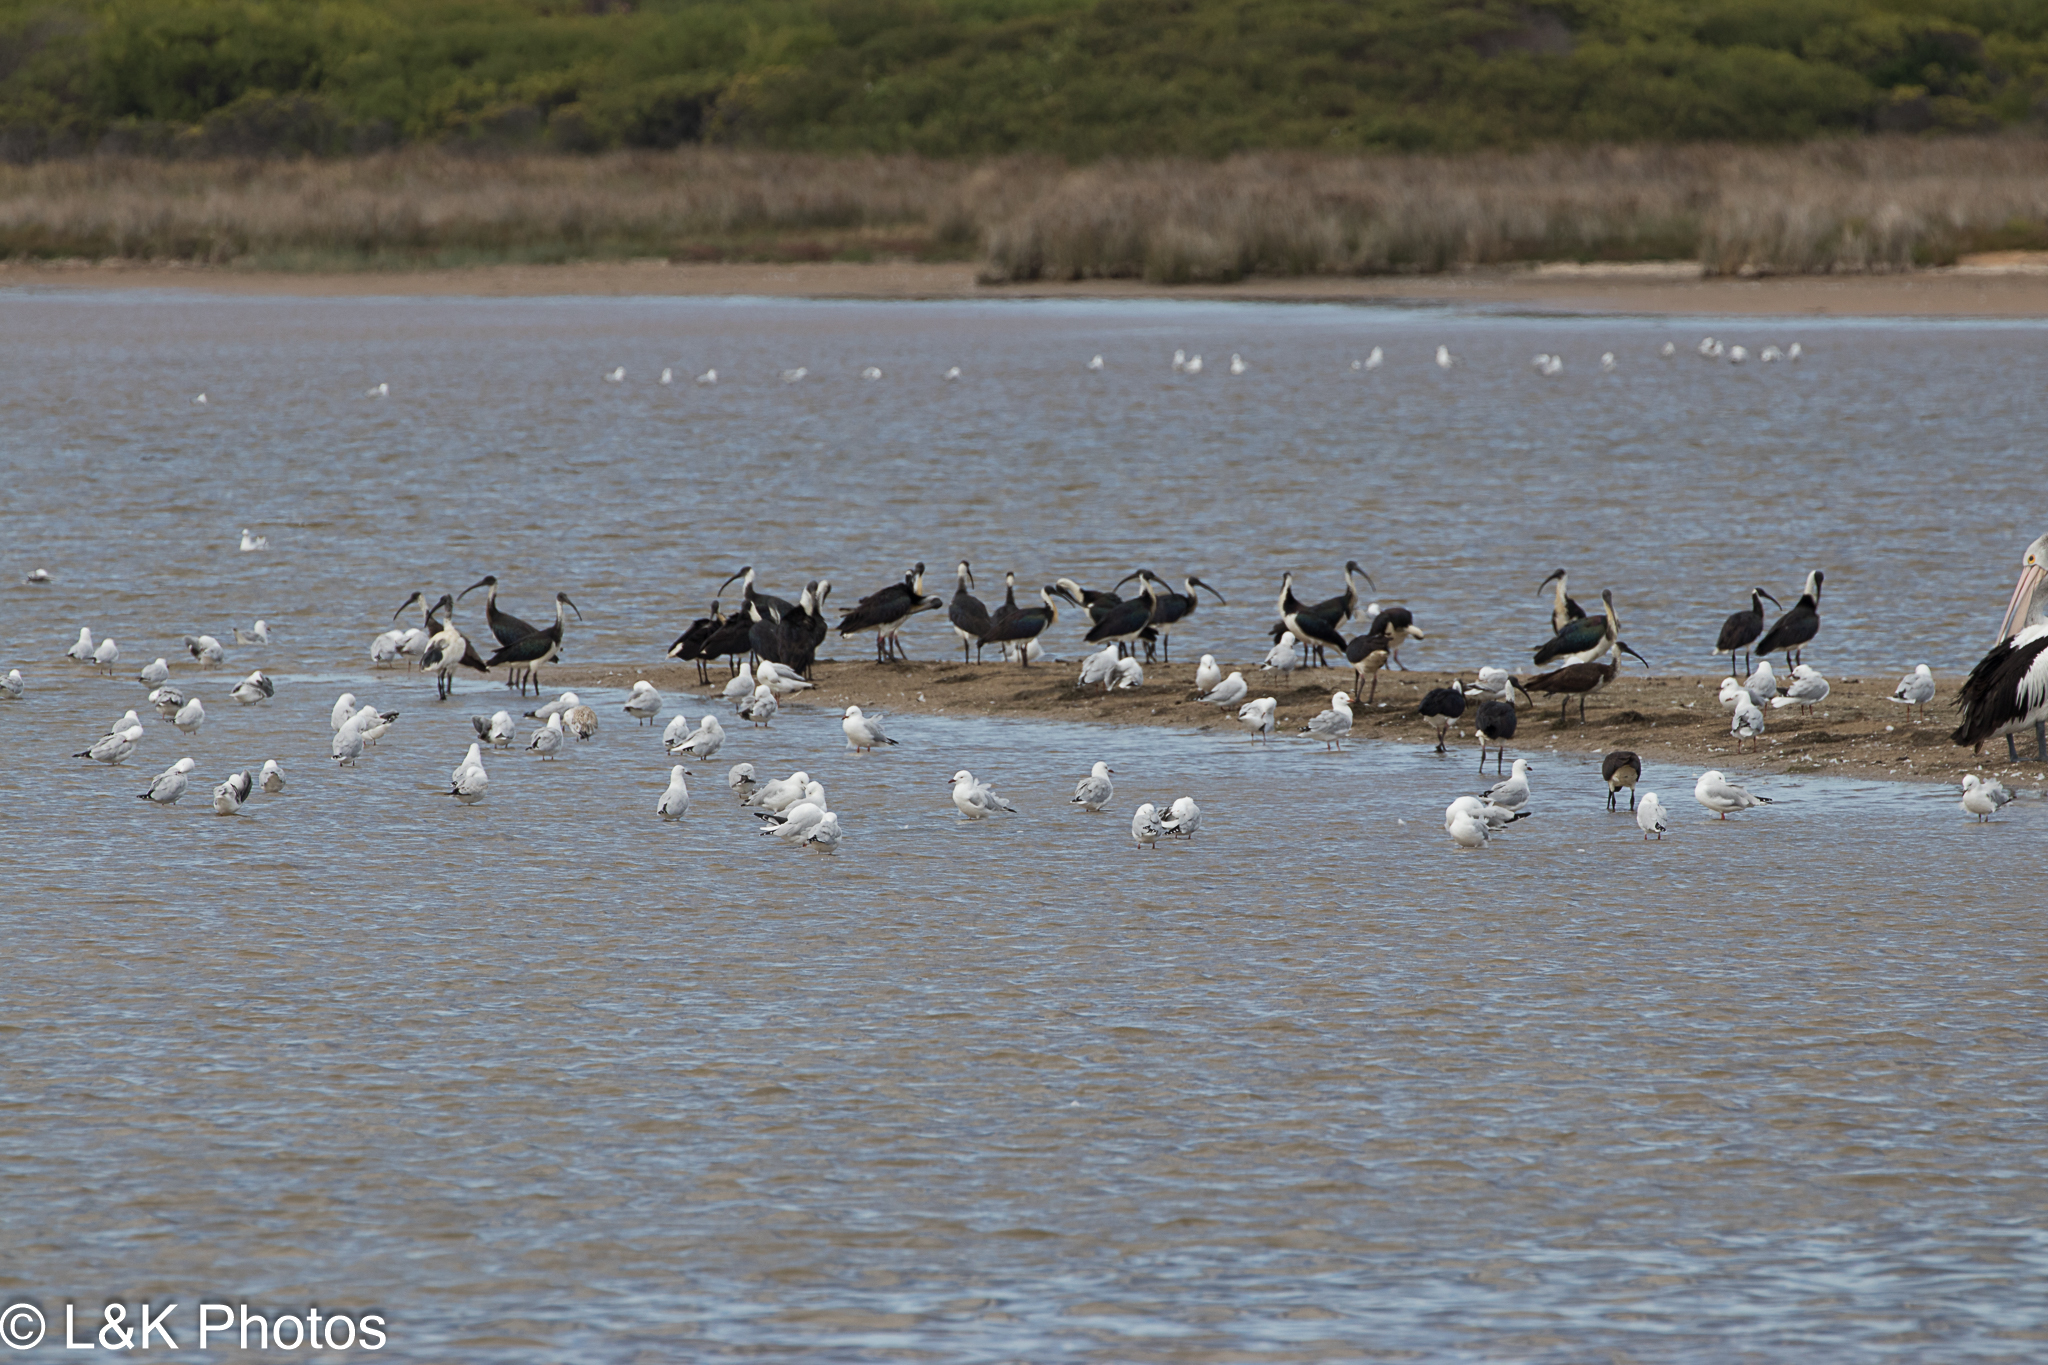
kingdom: Animalia
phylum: Chordata
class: Aves
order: Pelecaniformes
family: Threskiornithidae
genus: Threskiornis
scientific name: Threskiornis spinicollis
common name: Straw-necked ibis
